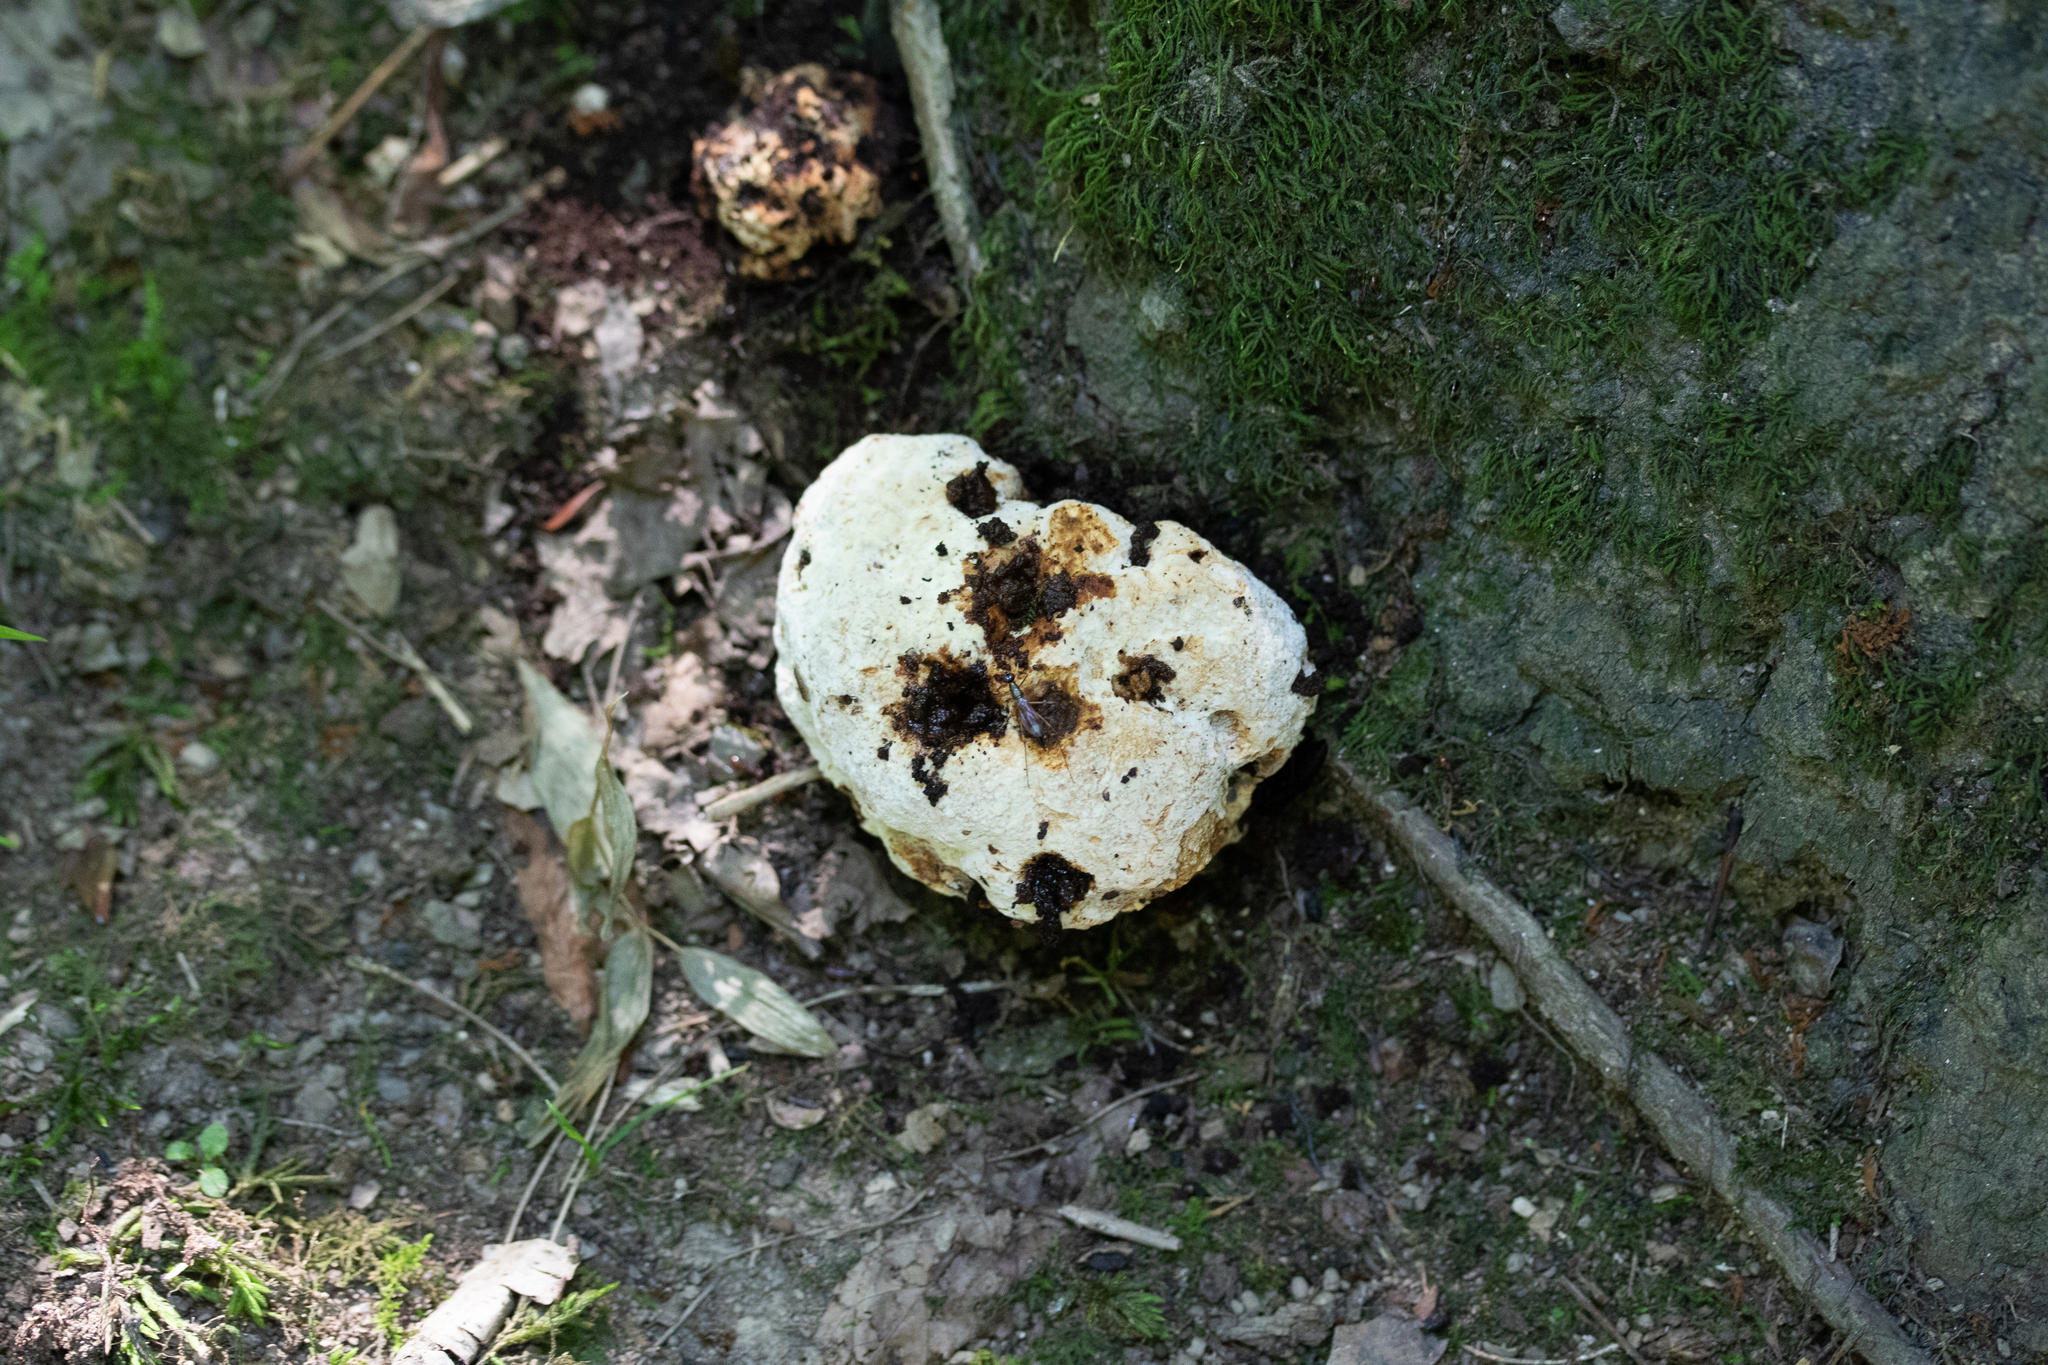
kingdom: Fungi
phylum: Basidiomycota
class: Agaricomycetes
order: Hymenochaetales
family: Hymenochaetaceae
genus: Pseudoinonotus
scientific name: Pseudoinonotus dryadeus
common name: Oak bracket
